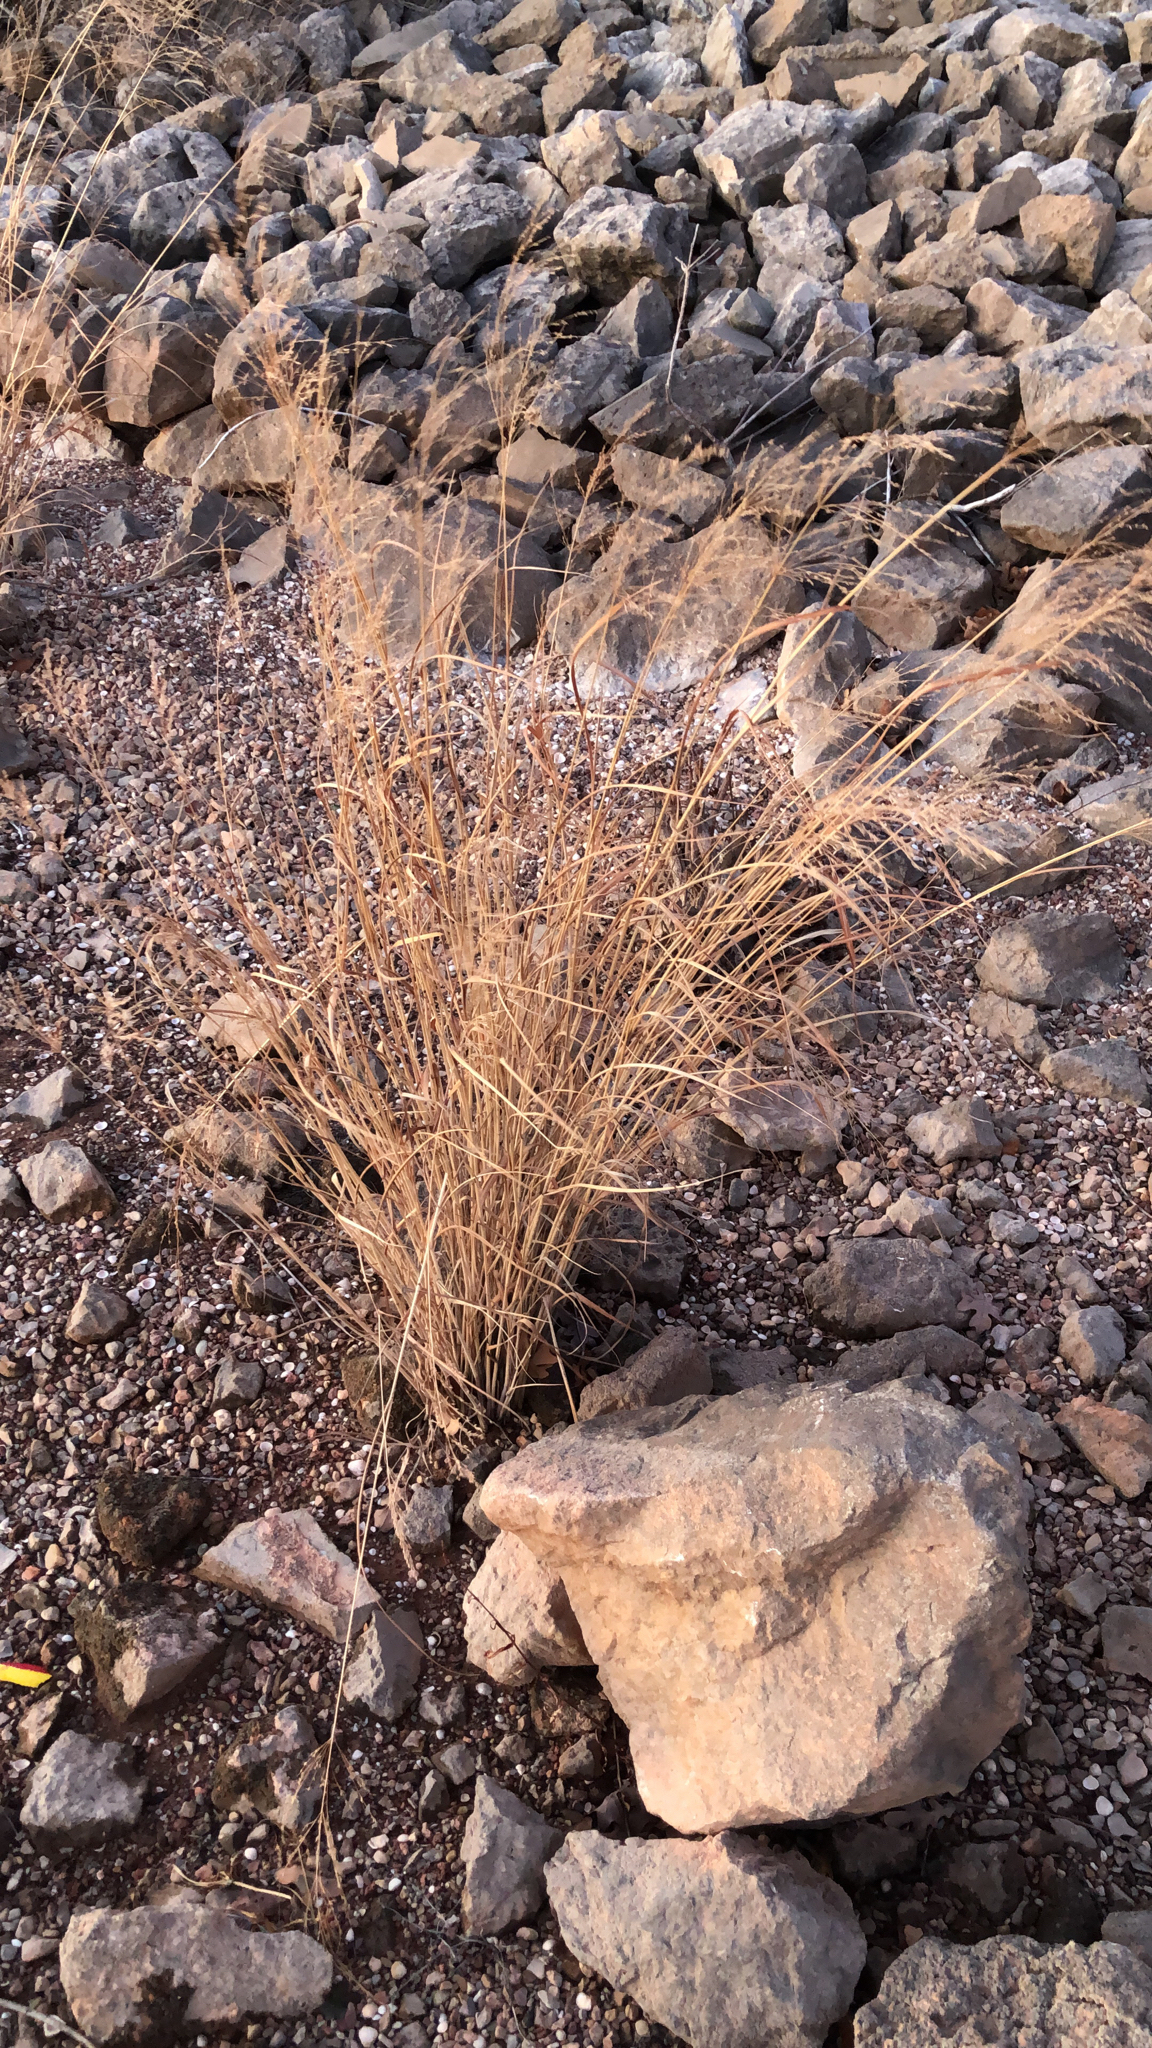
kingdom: Plantae
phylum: Tracheophyta
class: Liliopsida
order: Poales
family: Poaceae
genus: Panicum
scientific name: Panicum virgatum
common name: Switchgrass
